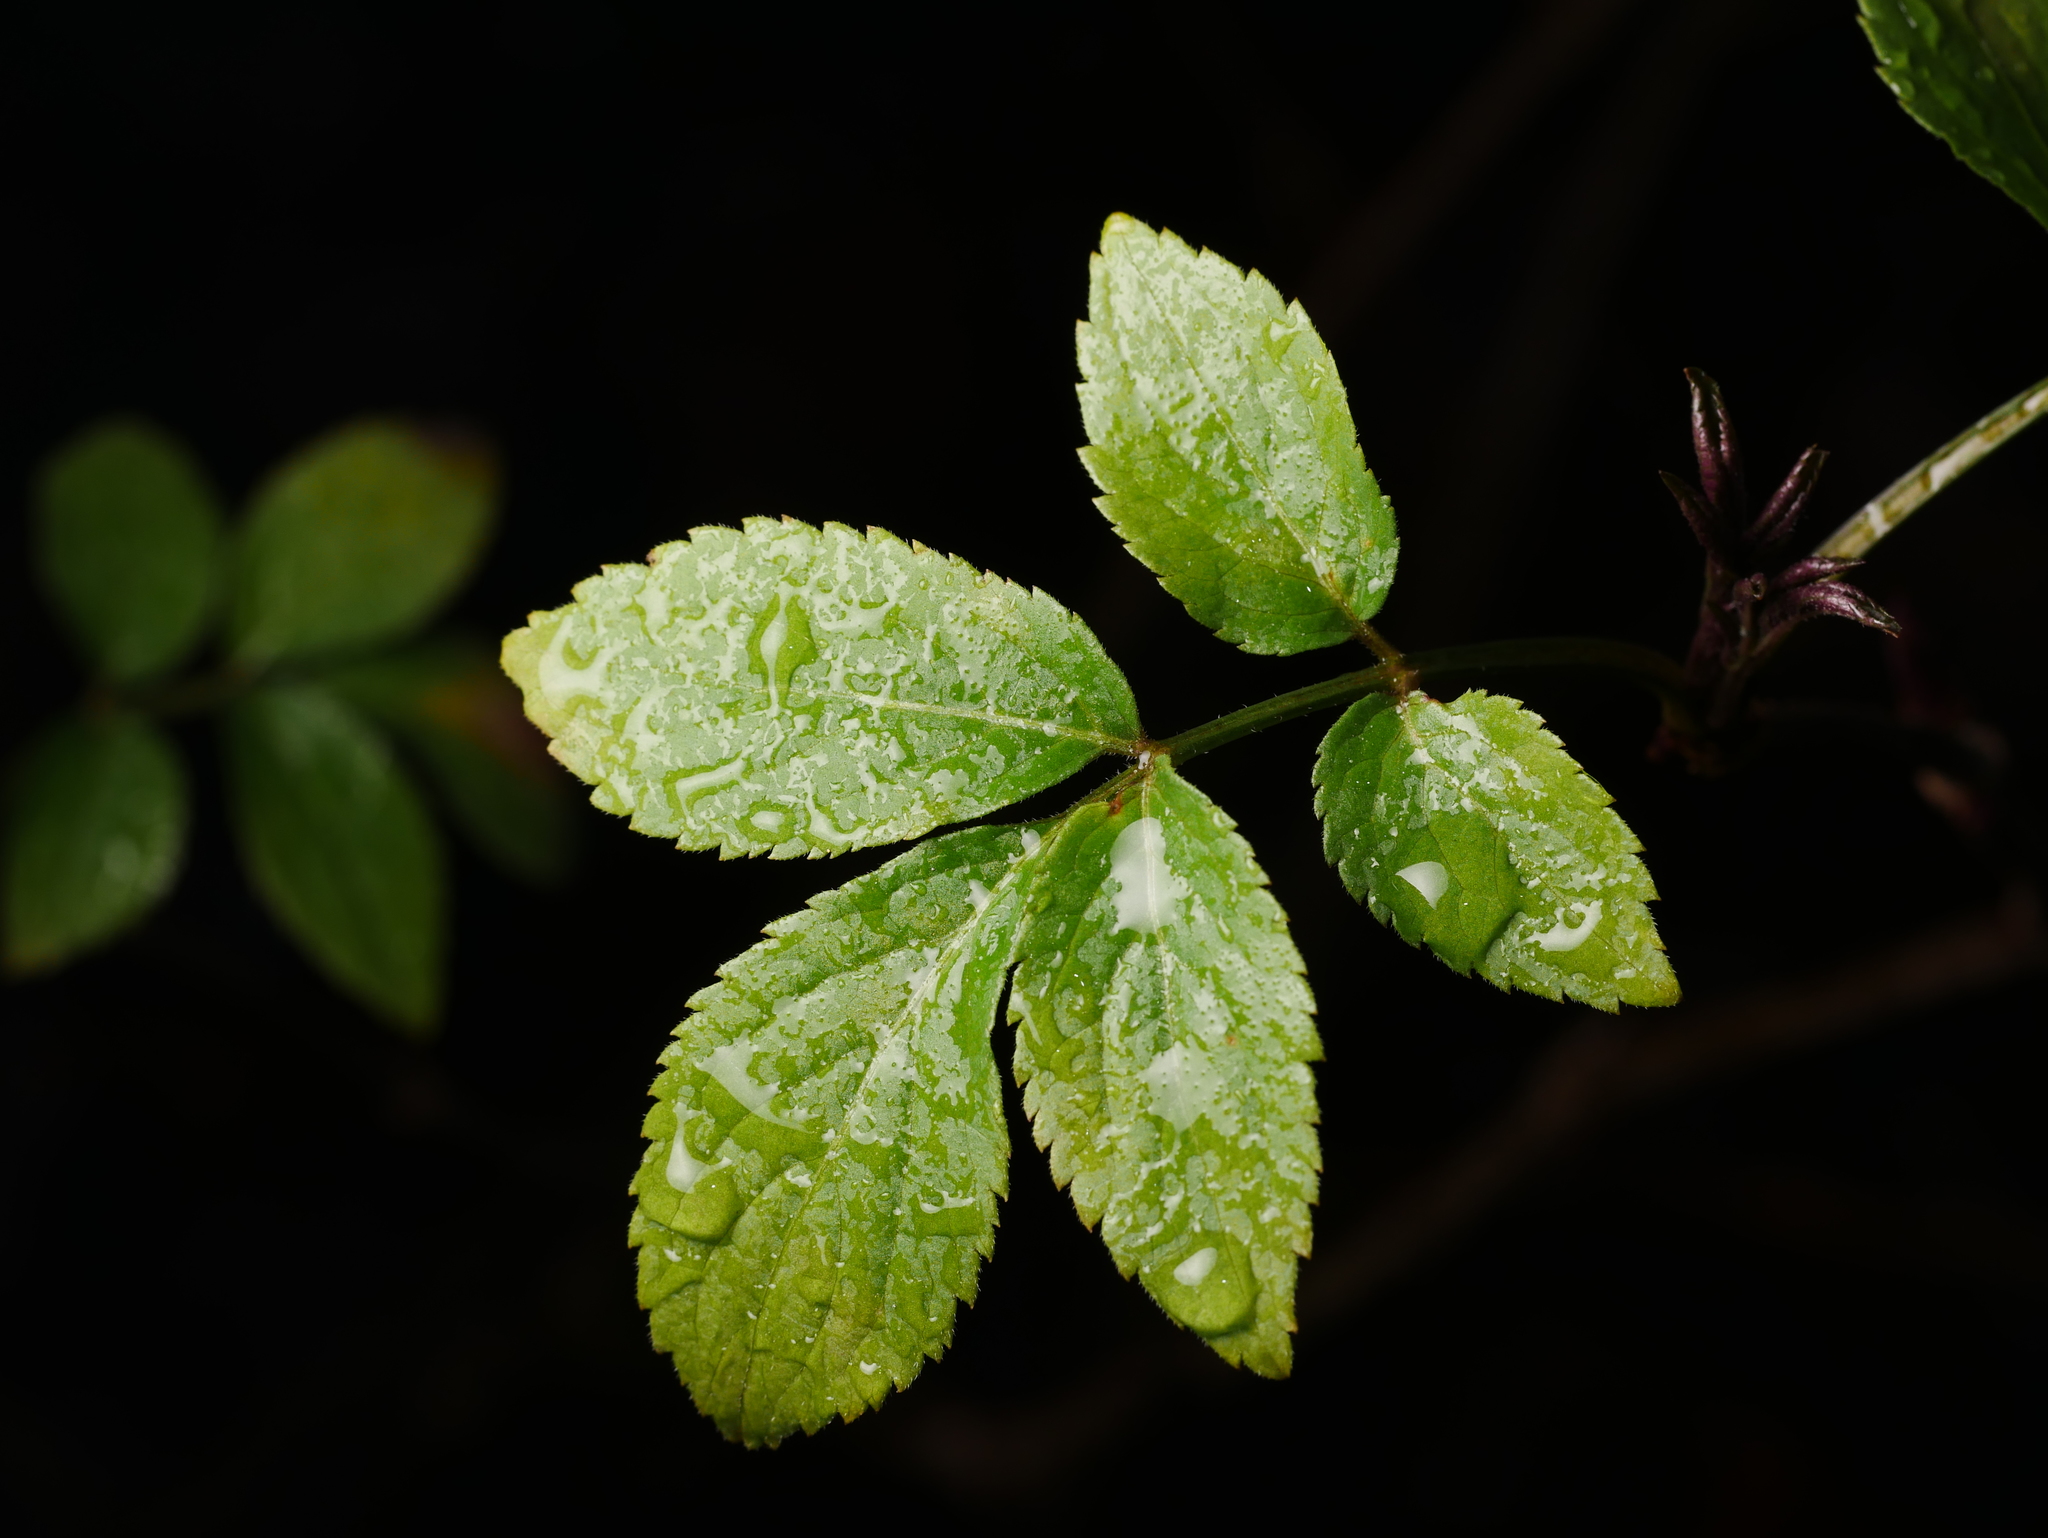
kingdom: Plantae
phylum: Tracheophyta
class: Magnoliopsida
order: Dipsacales
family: Viburnaceae
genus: Sambucus
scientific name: Sambucus nigra
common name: Elder
